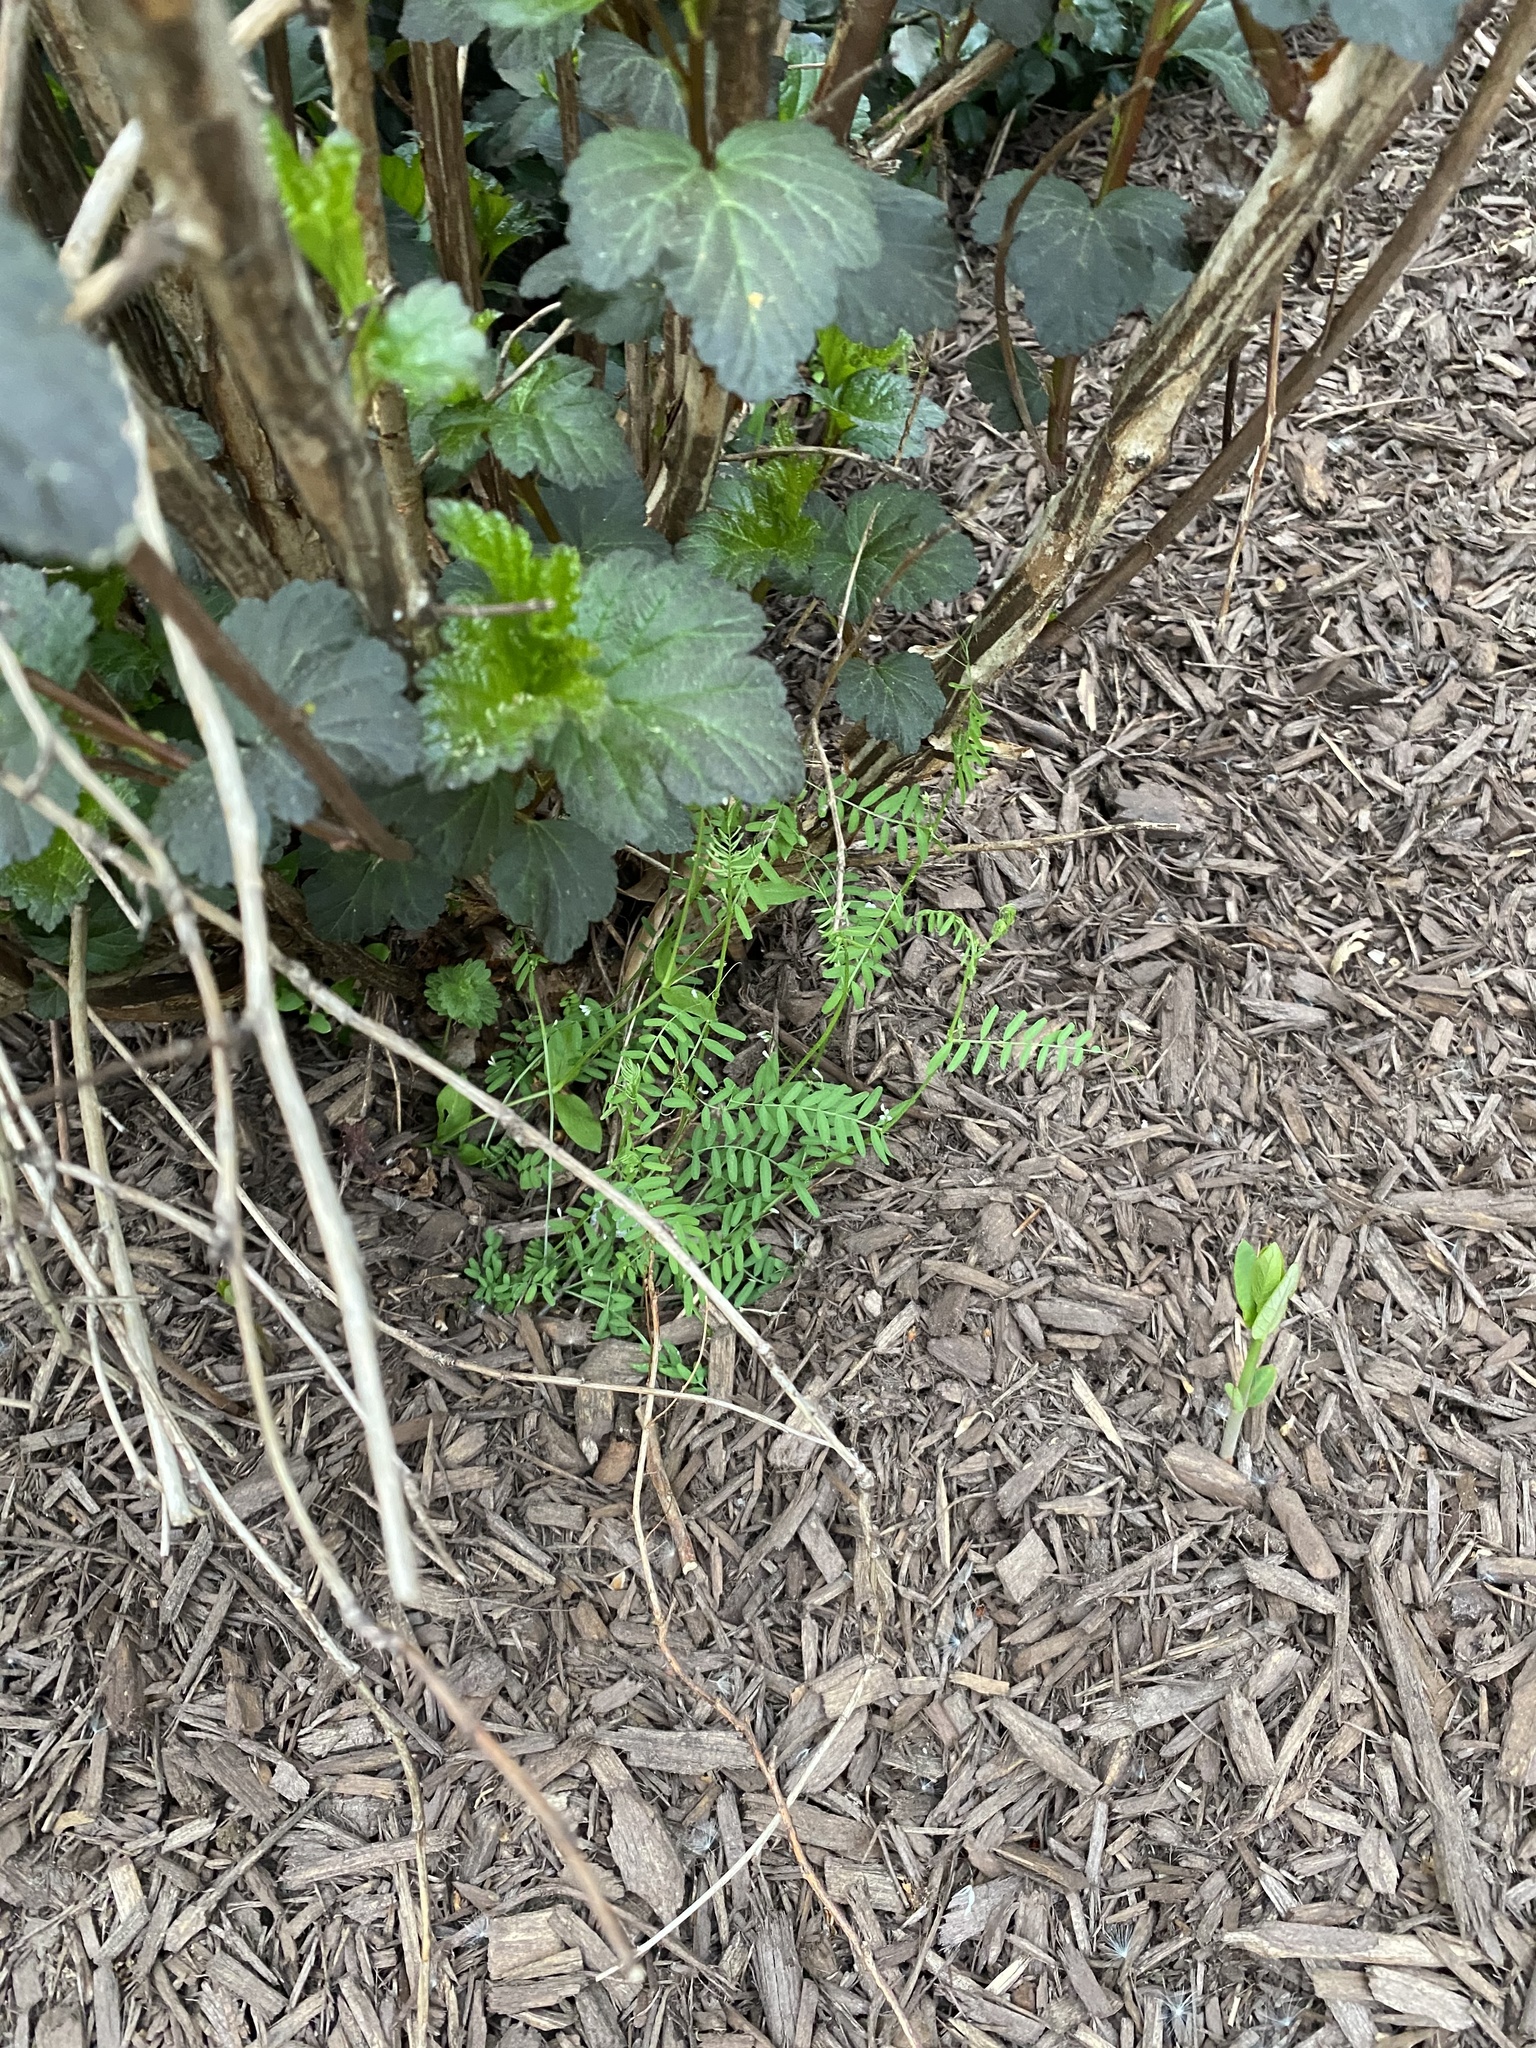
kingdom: Plantae
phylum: Tracheophyta
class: Magnoliopsida
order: Fabales
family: Fabaceae
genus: Vicia
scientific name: Vicia hirsuta
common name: Tiny vetch
